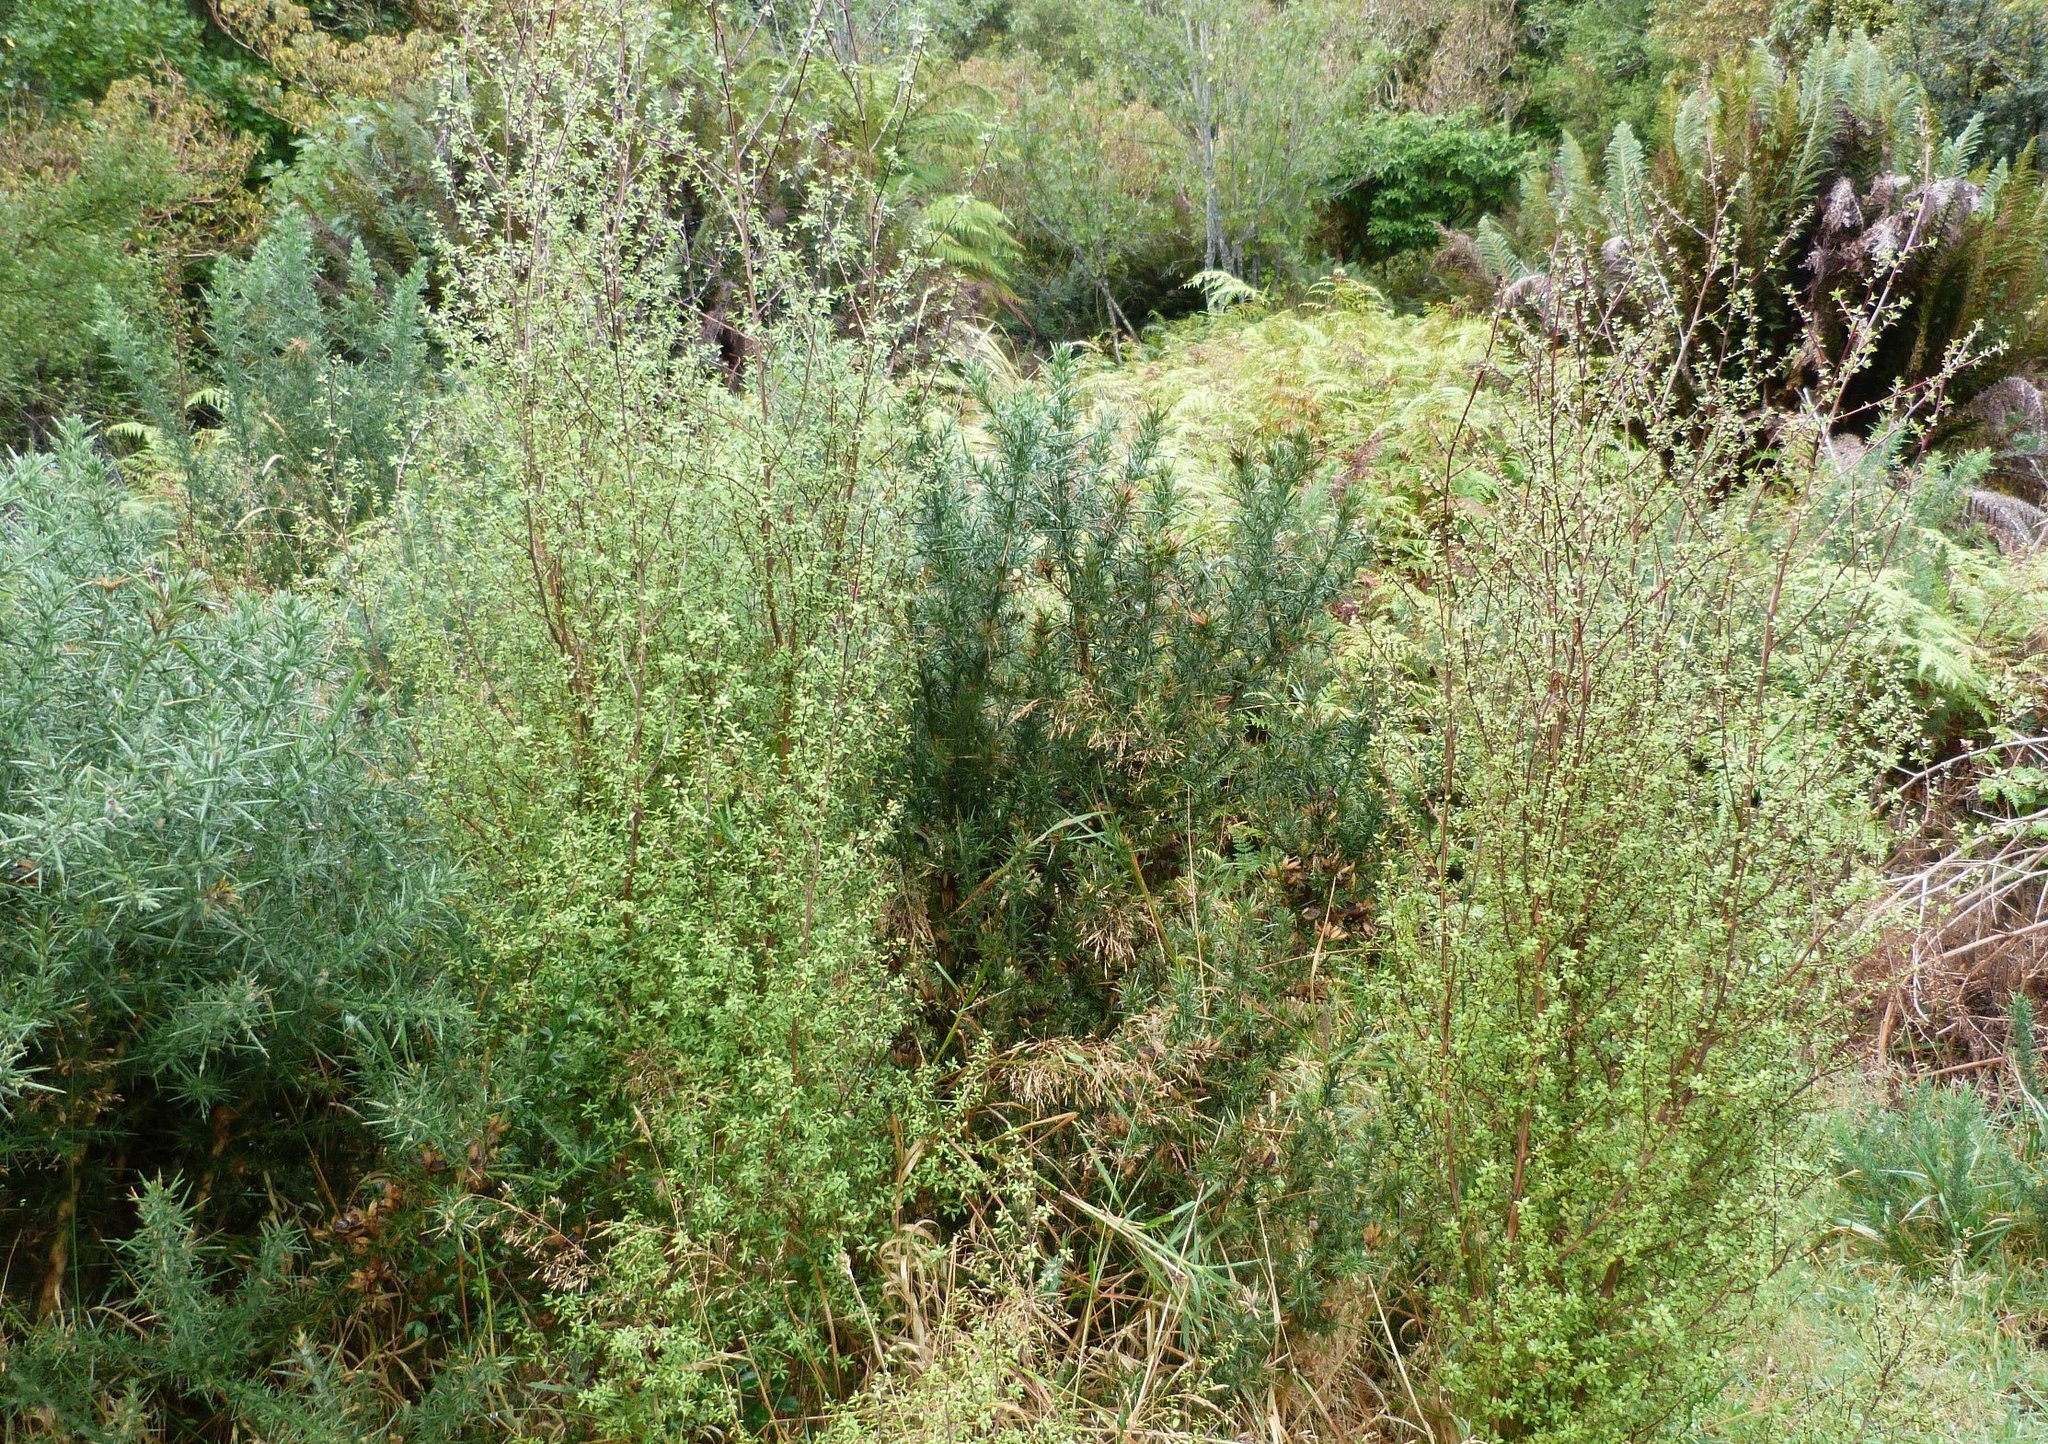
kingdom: Plantae
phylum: Tracheophyta
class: Magnoliopsida
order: Myrtales
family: Myrtaceae
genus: Leptospermum
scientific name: Leptospermum scoparium
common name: Broom tea-tree
